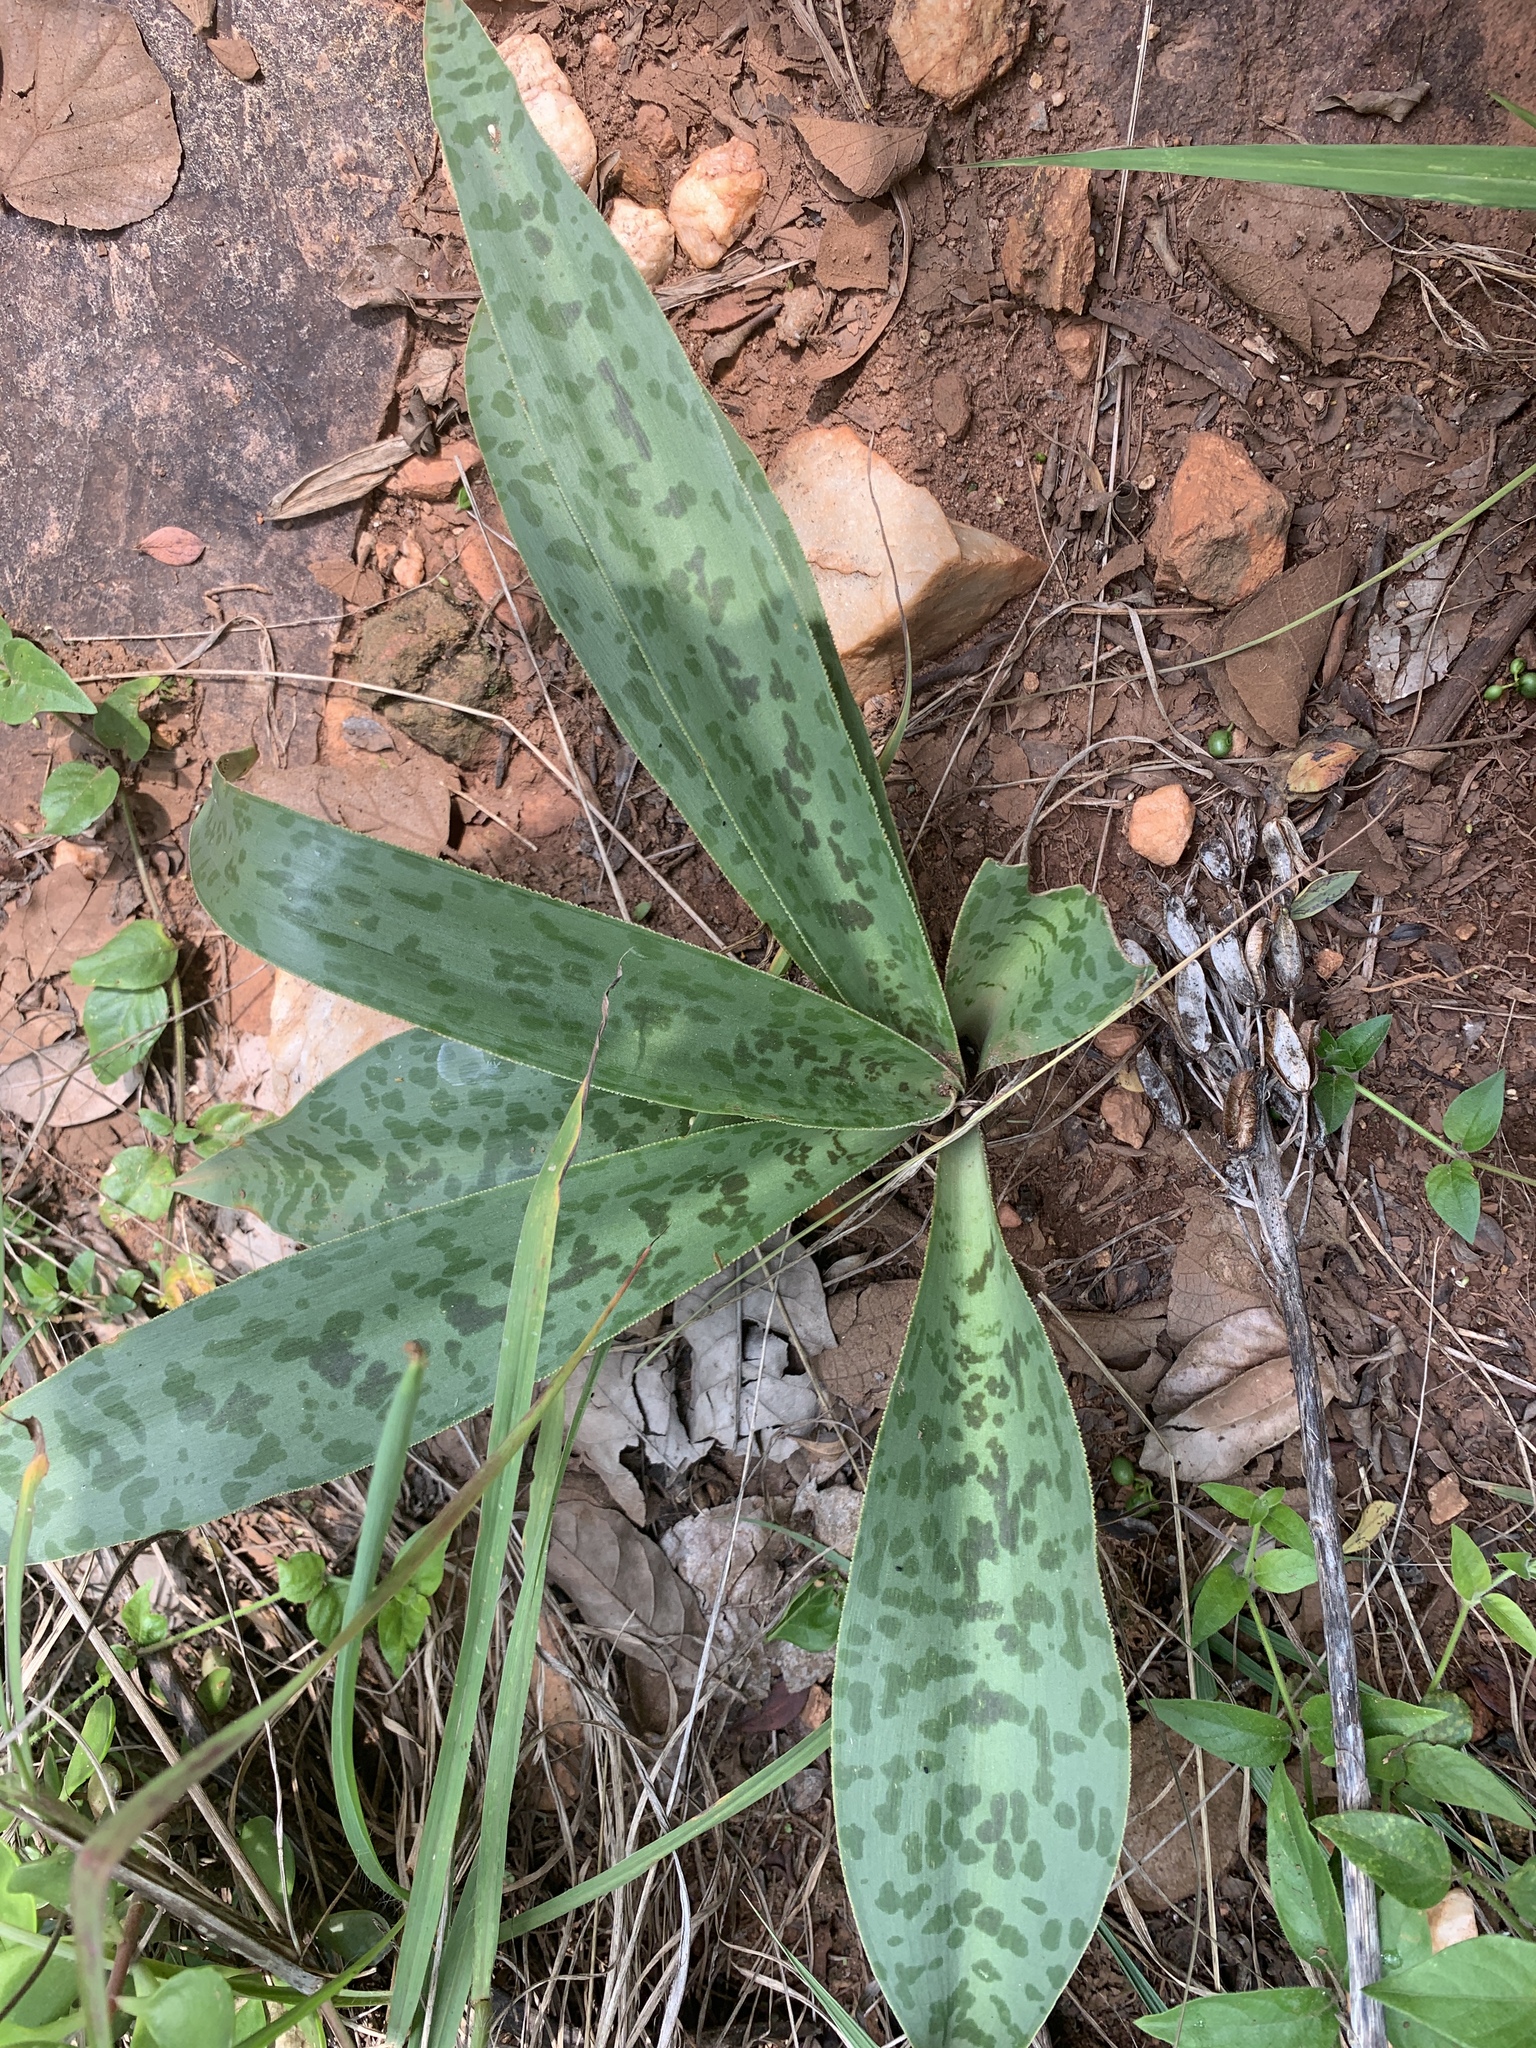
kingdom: Plantae
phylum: Tracheophyta
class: Liliopsida
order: Asparagales
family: Asparagaceae
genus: Ledebouria
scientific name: Ledebouria luteola
